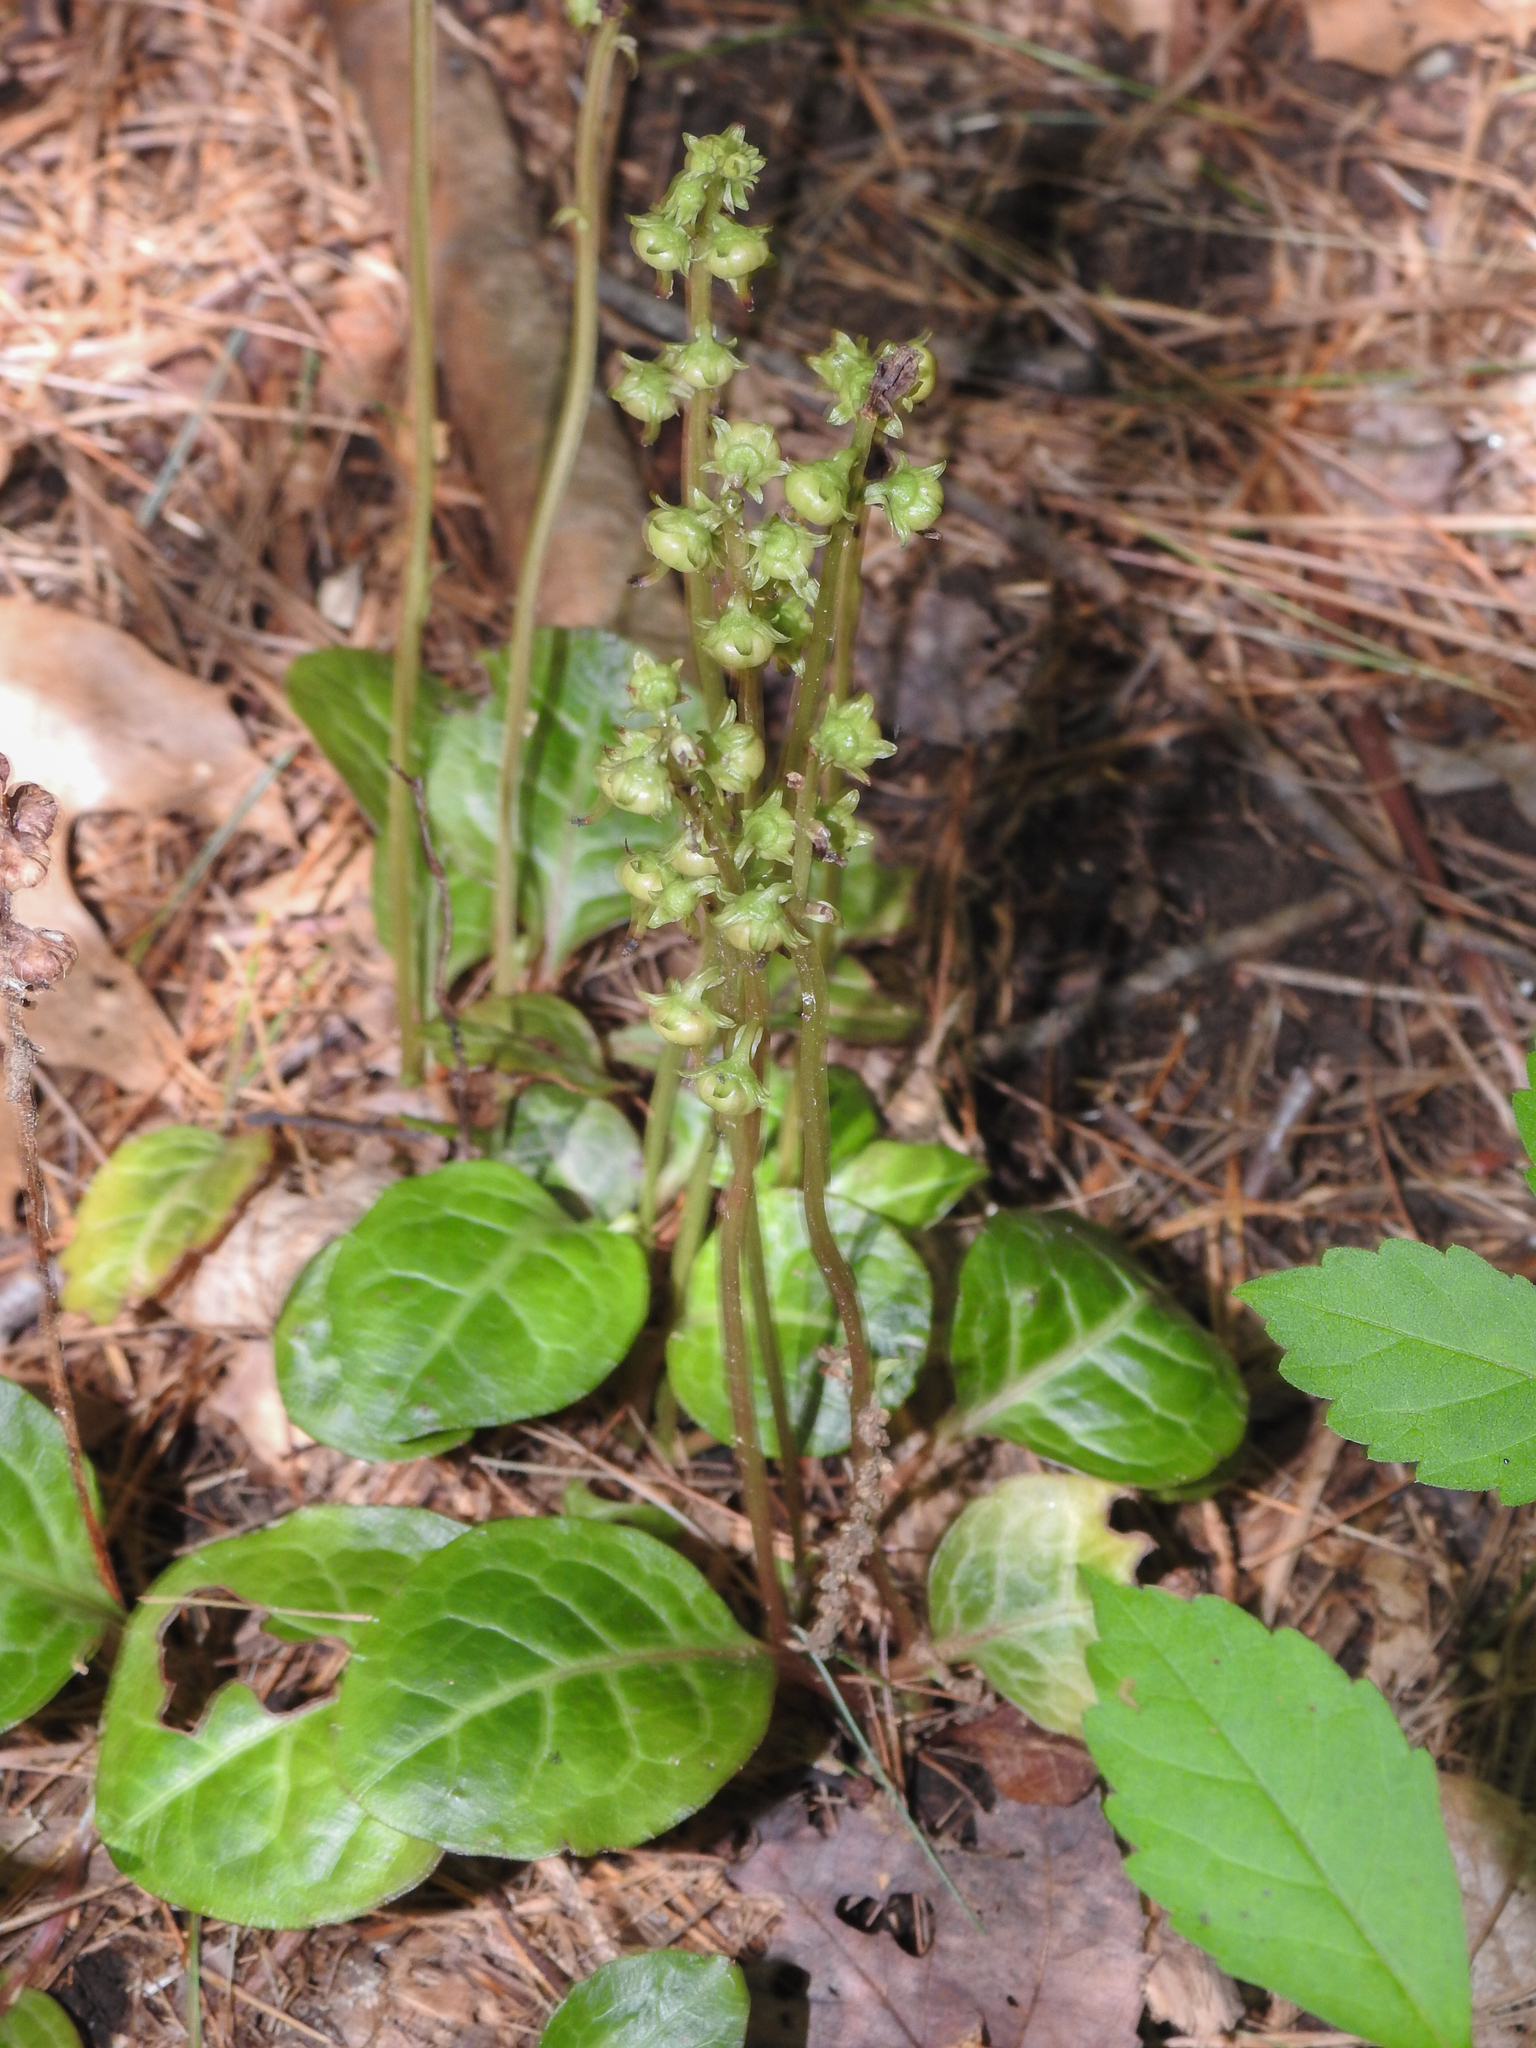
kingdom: Plantae
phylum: Tracheophyta
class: Magnoliopsida
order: Ericales
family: Ericaceae
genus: Pyrola
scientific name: Pyrola americana
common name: American wintergreen
